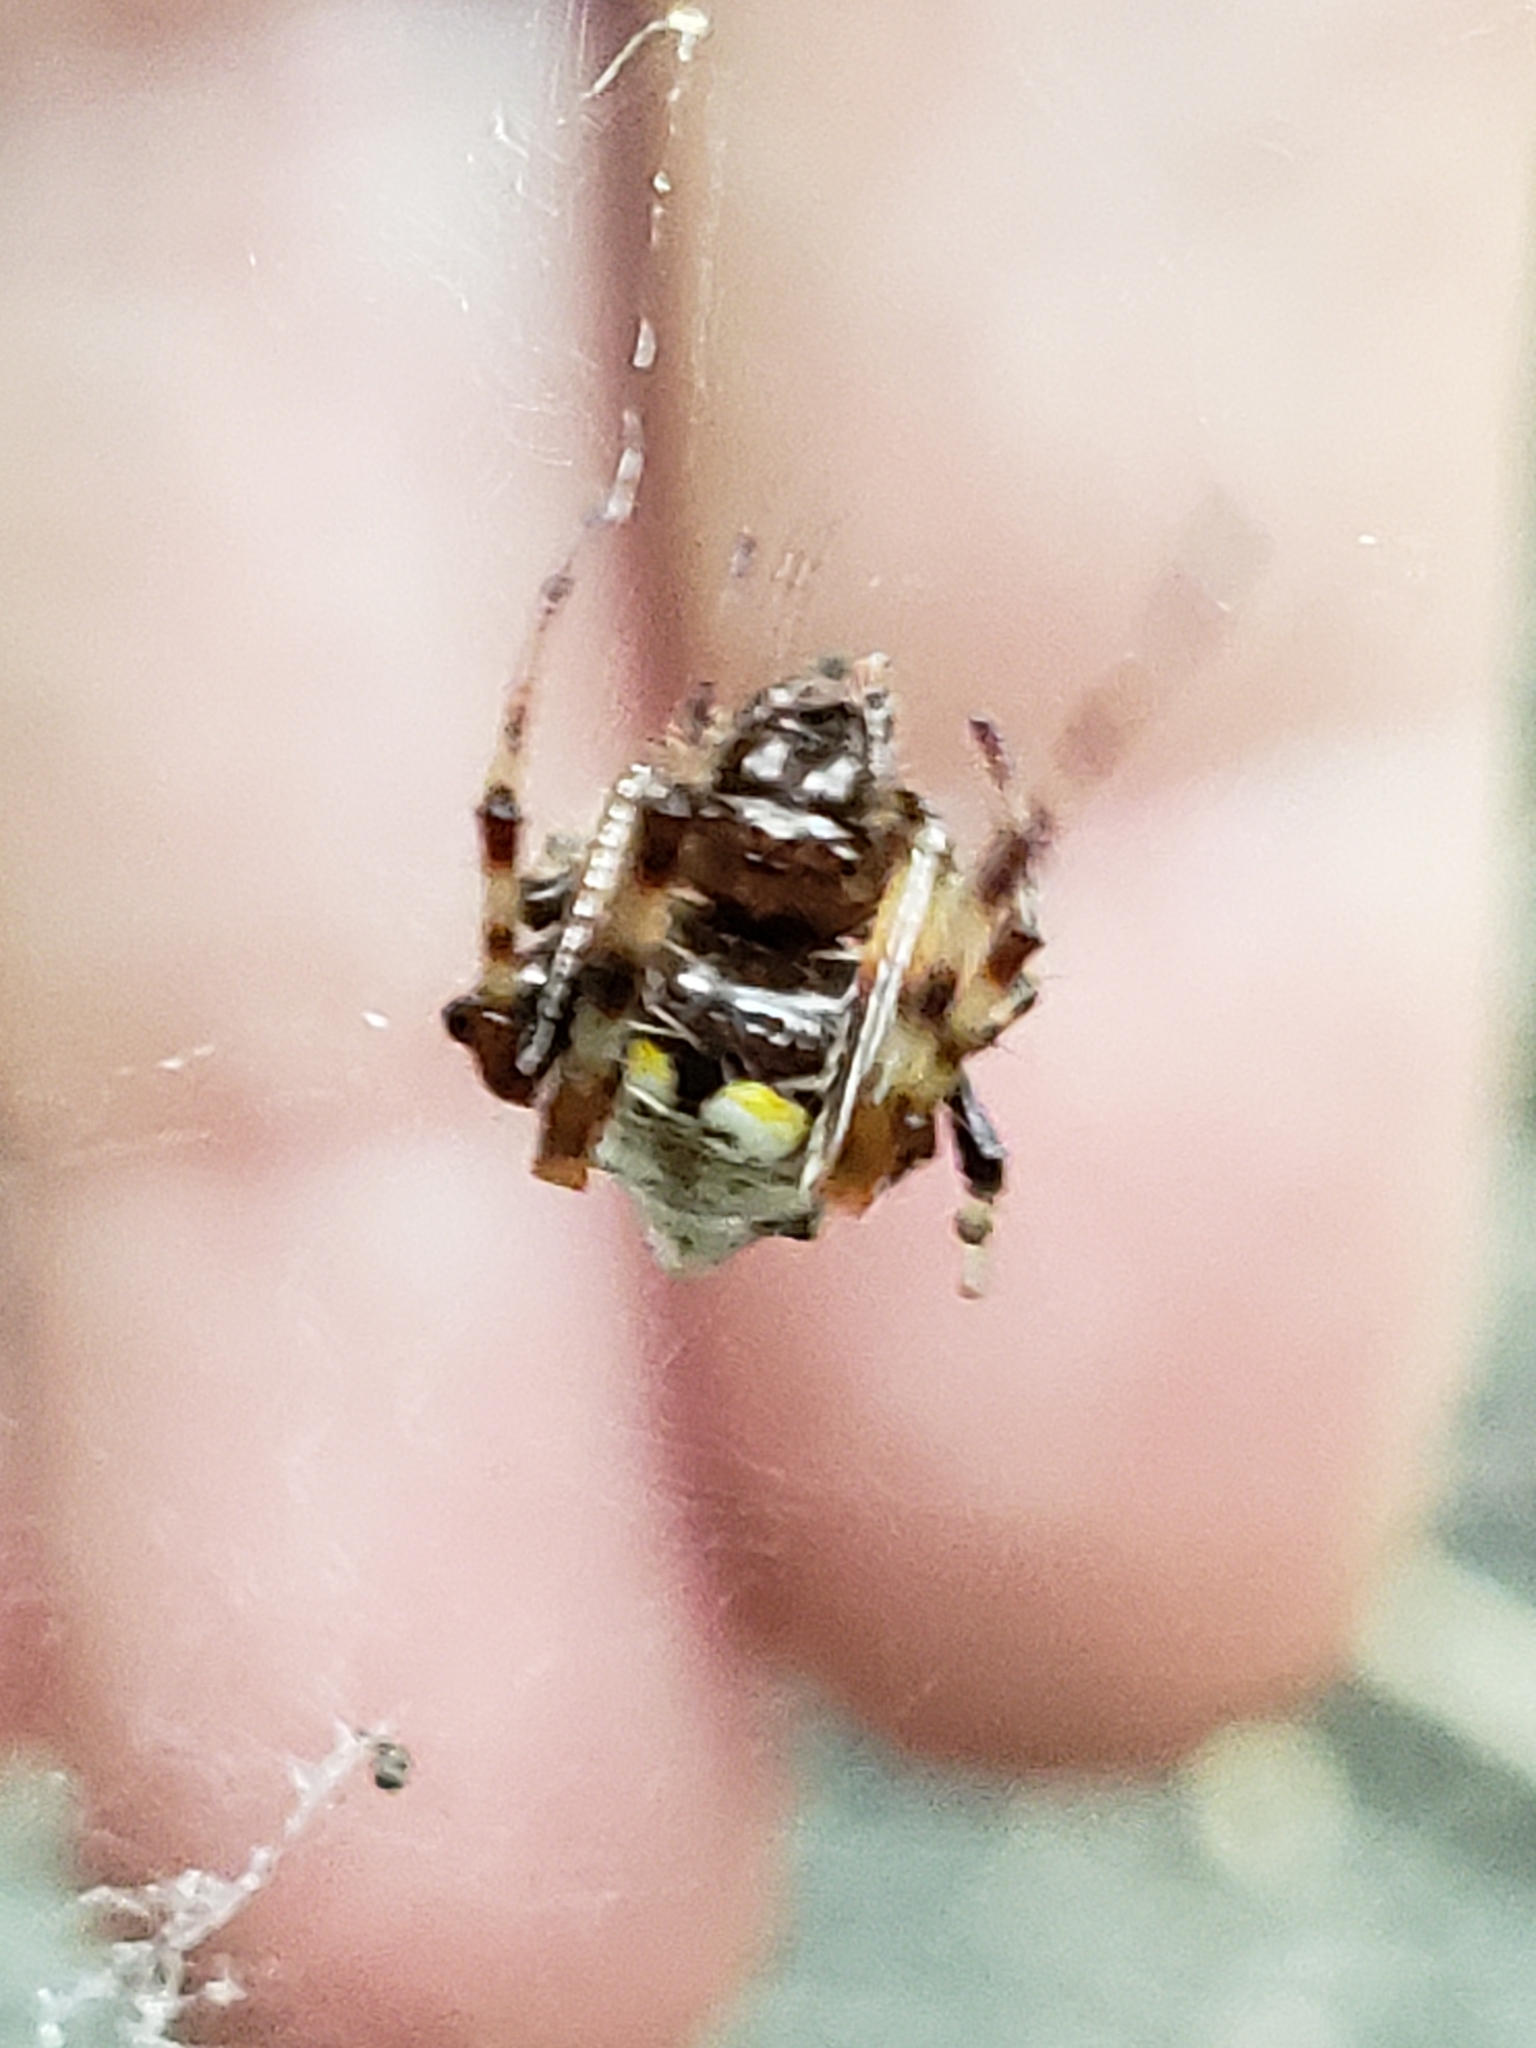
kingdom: Animalia
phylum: Arthropoda
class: Arachnida
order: Araneae
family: Araneidae
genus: Verrucosa
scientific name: Verrucosa arenata
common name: Orb weavers
